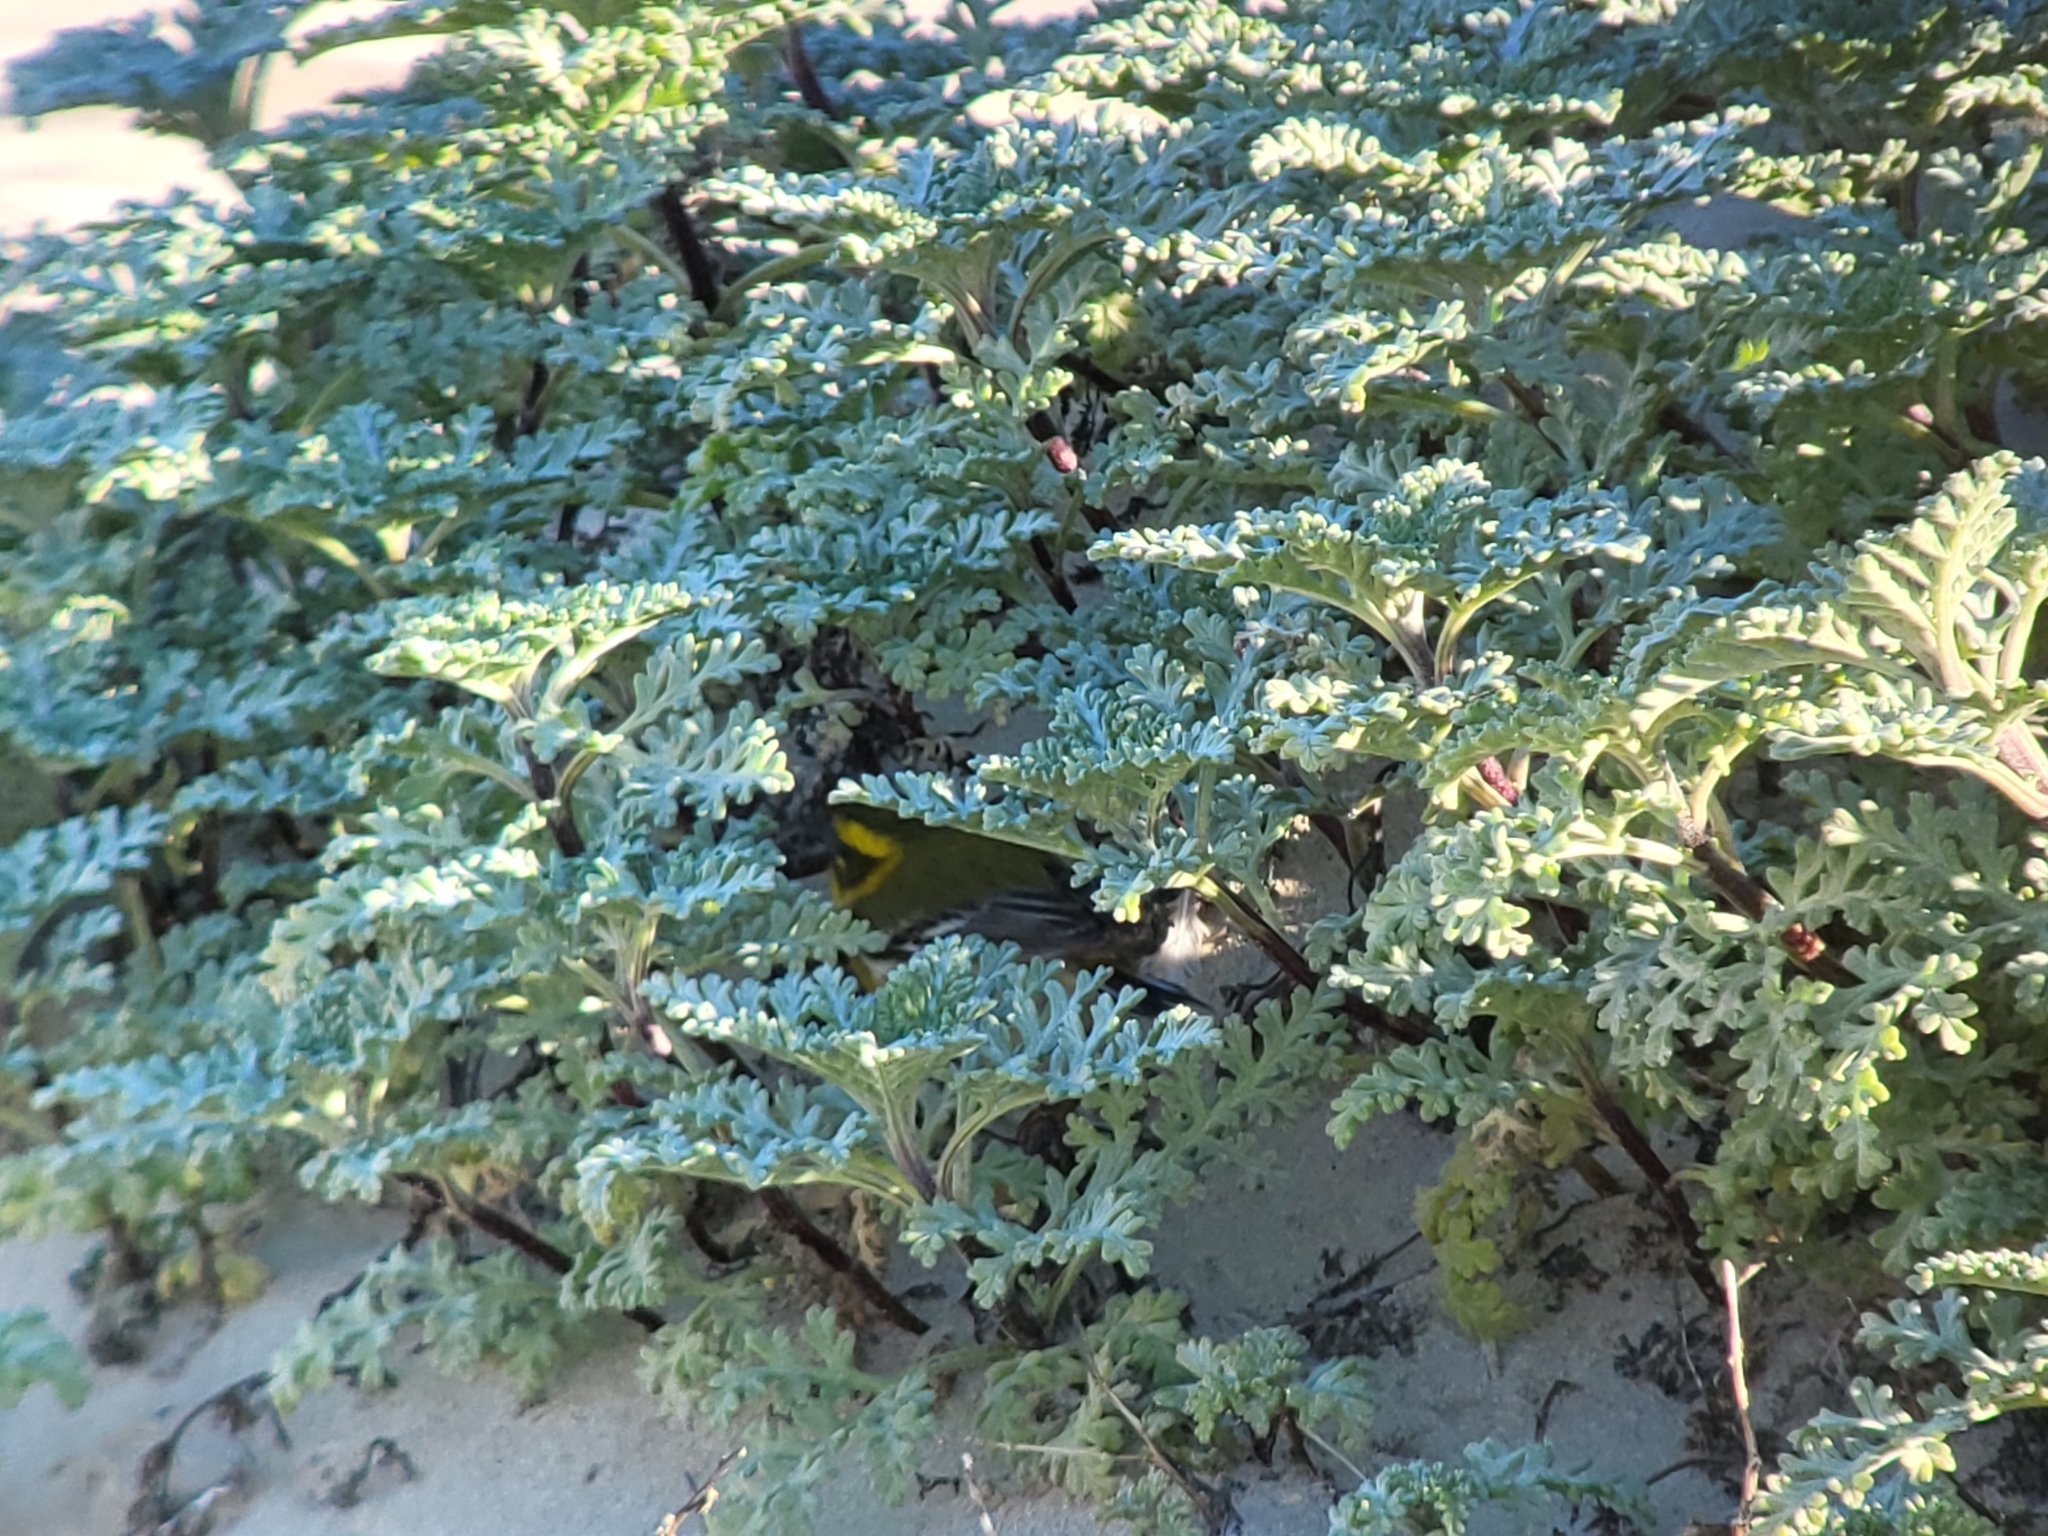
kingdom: Animalia
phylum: Chordata
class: Aves
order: Passeriformes
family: Parulidae
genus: Setophaga
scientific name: Setophaga townsendi
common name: Townsend's warbler
